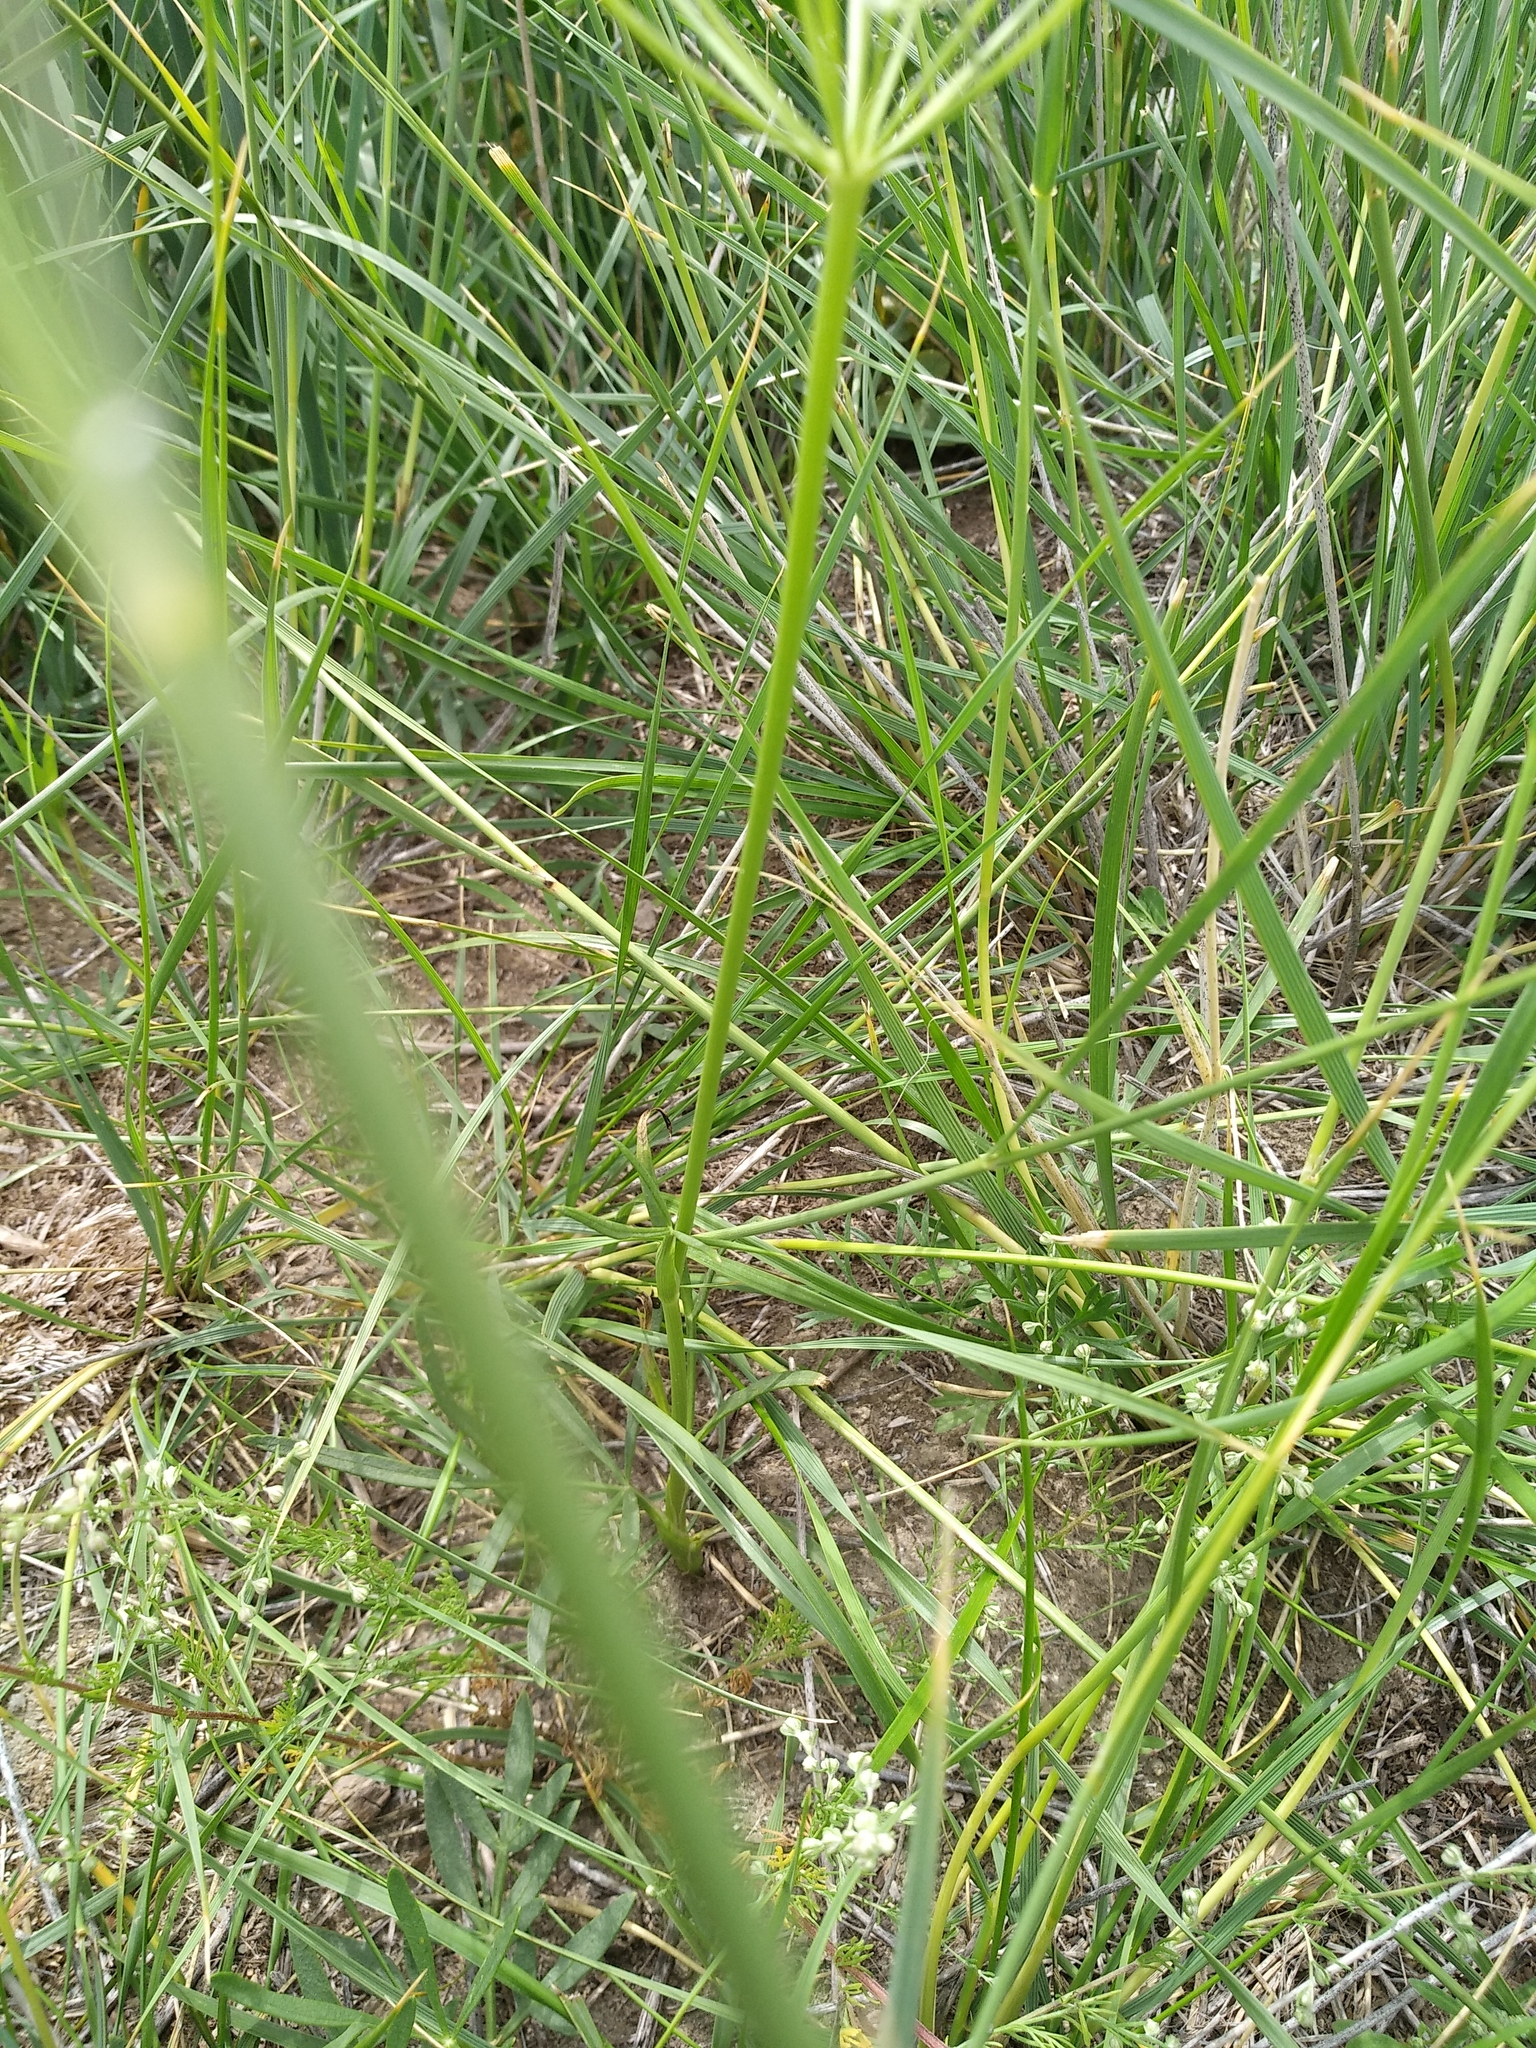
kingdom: Plantae
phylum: Tracheophyta
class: Magnoliopsida
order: Apiales
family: Apiaceae
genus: Haloselinum
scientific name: Haloselinum falcaria
